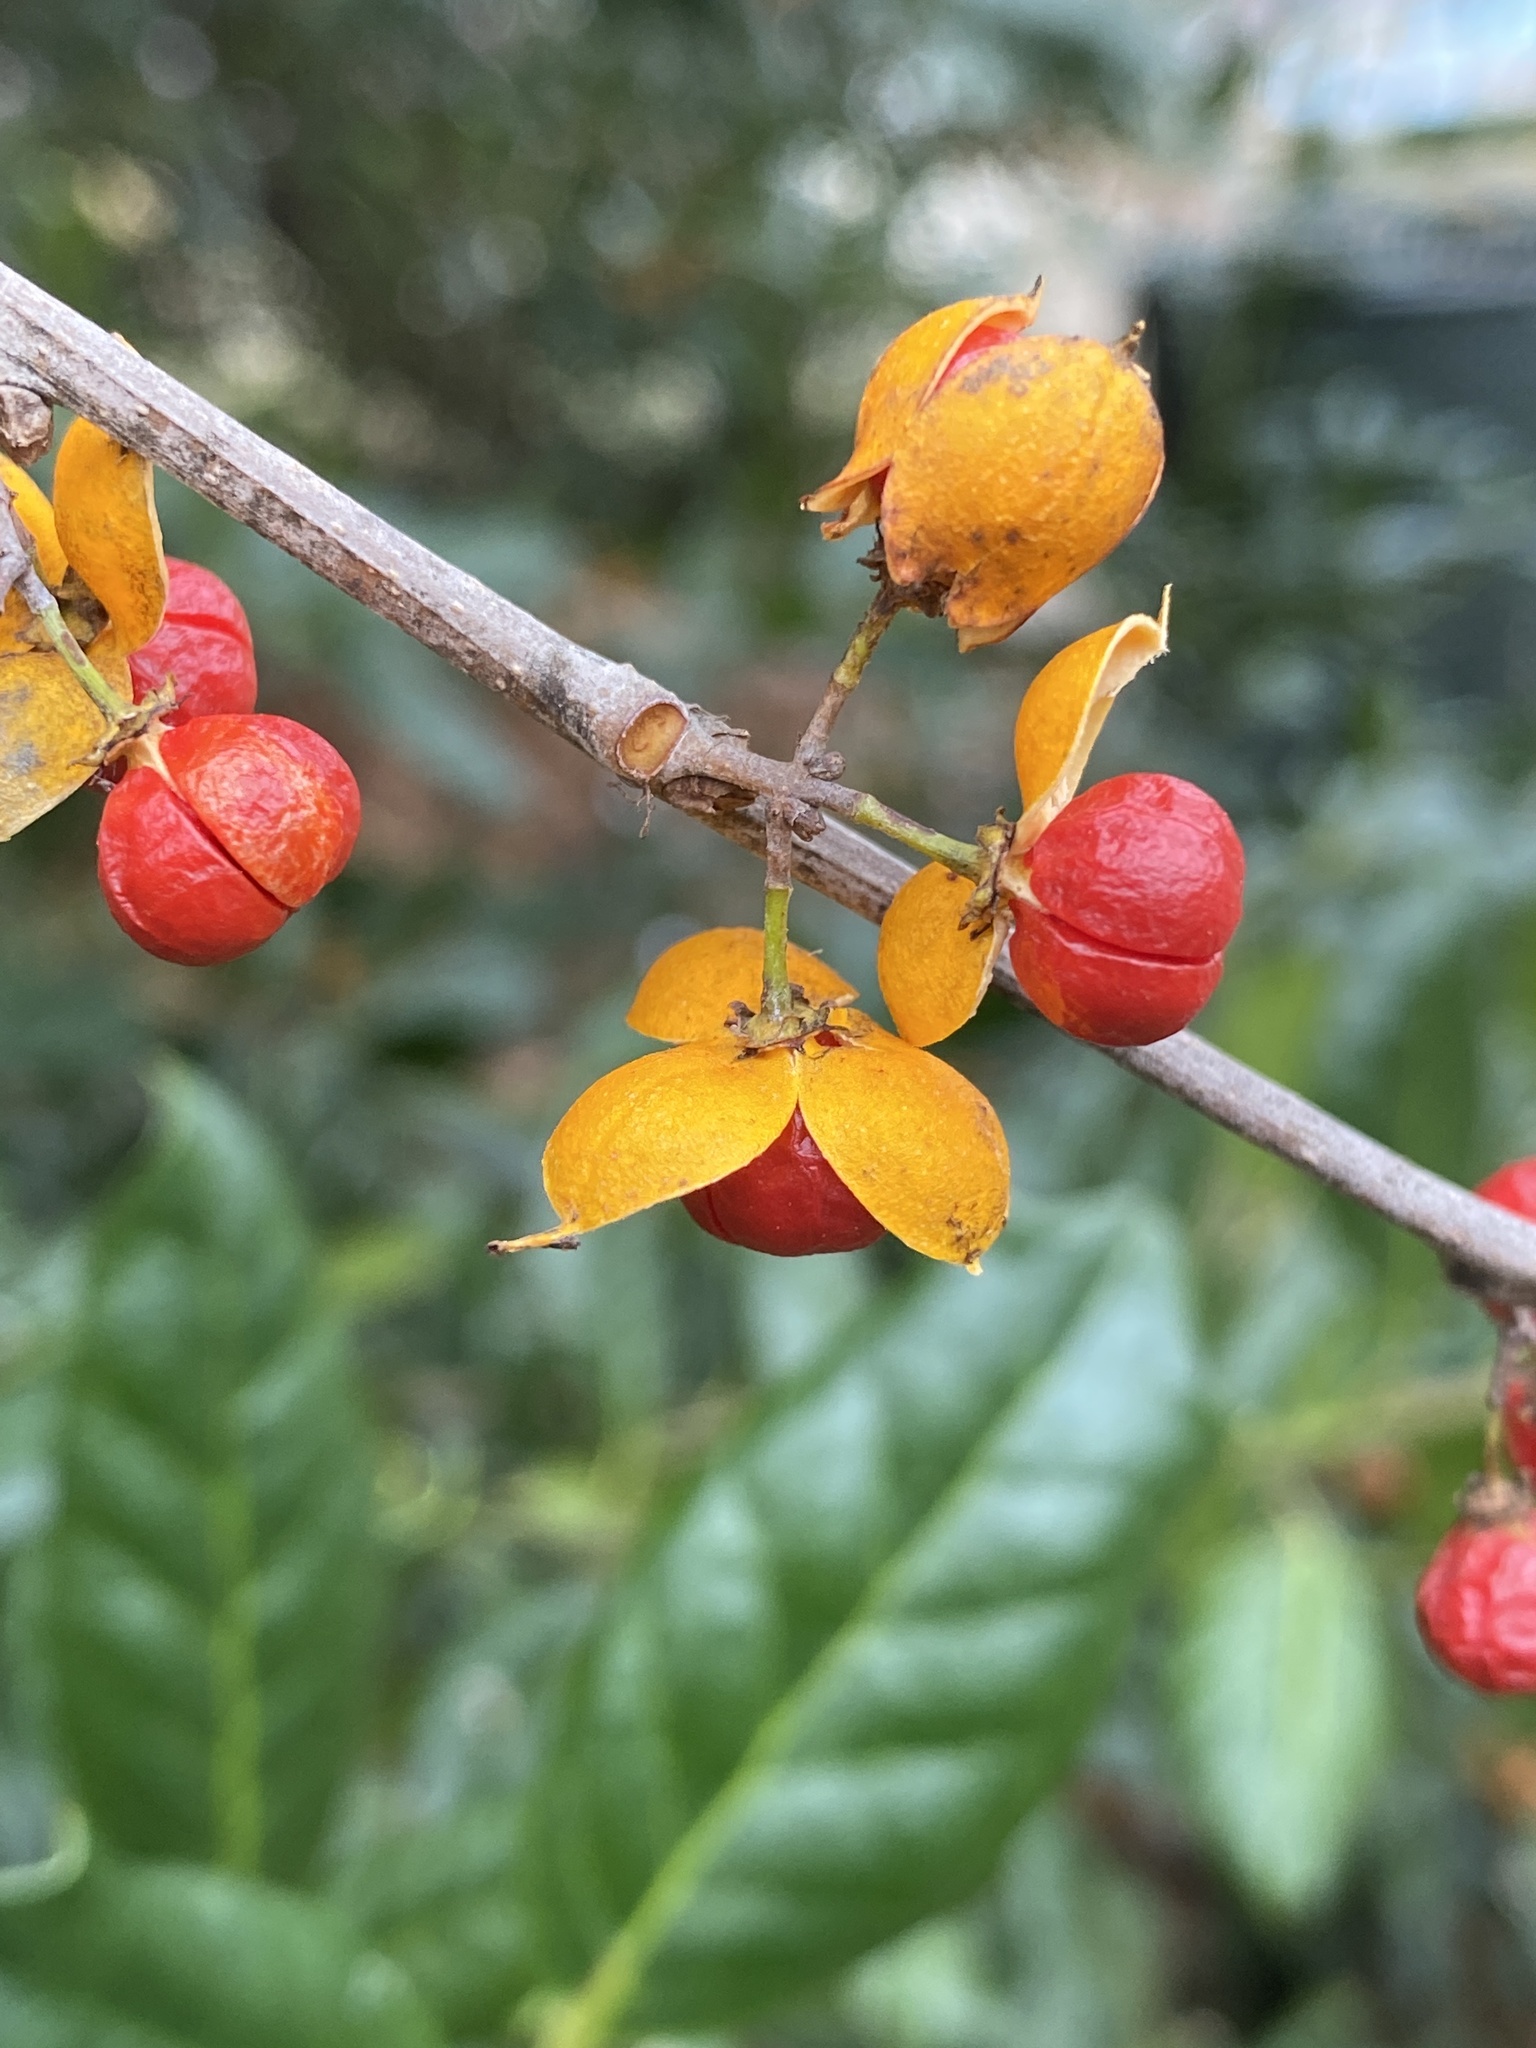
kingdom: Plantae
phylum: Tracheophyta
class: Magnoliopsida
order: Celastrales
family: Celastraceae
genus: Celastrus
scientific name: Celastrus orbiculatus
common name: Oriental bittersweet
